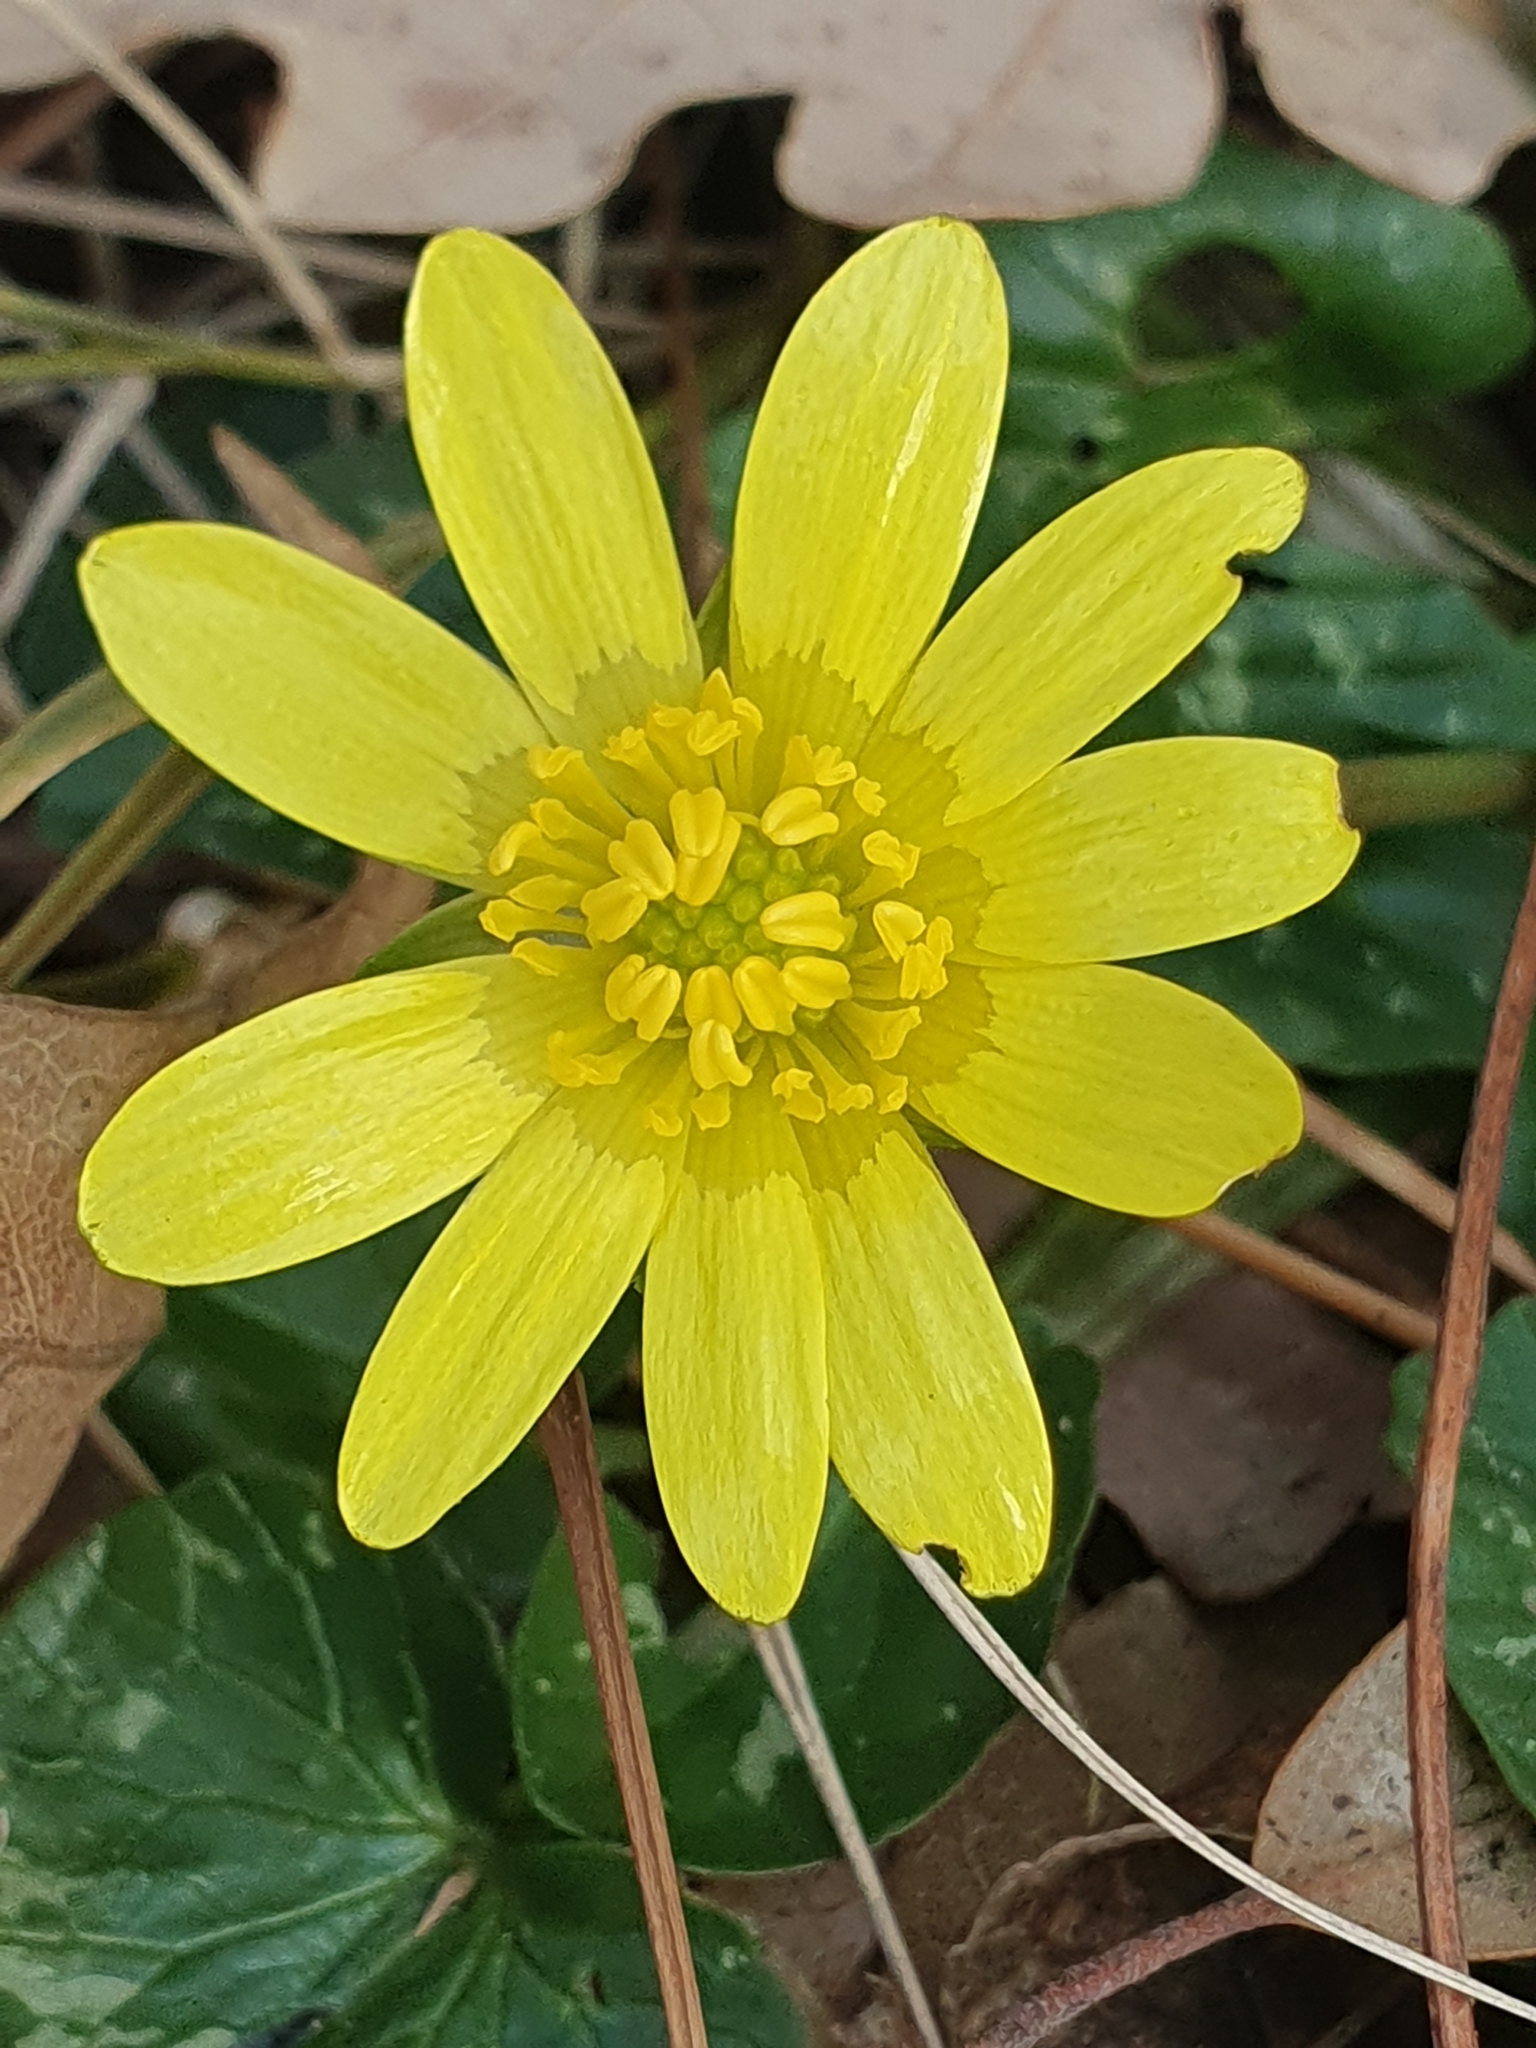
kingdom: Plantae
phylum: Tracheophyta
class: Magnoliopsida
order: Ranunculales
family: Ranunculaceae
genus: Ficaria
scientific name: Ficaria verna
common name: Lesser celandine
